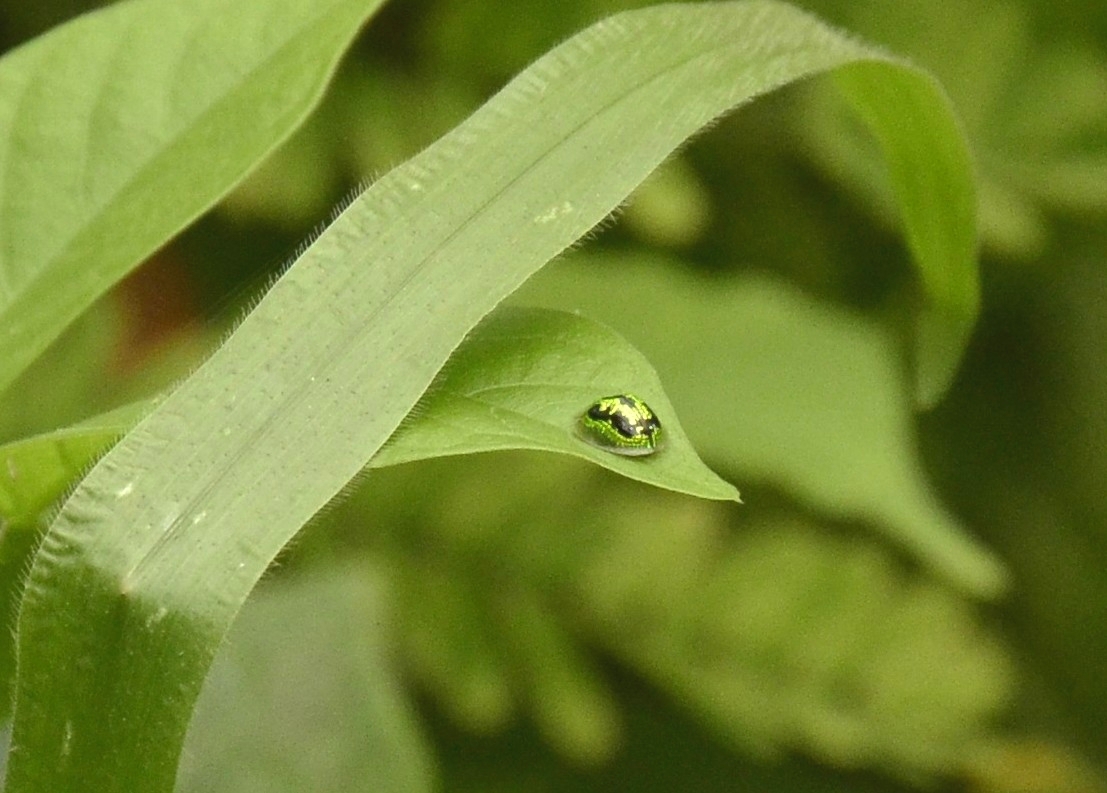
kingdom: Animalia
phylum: Arthropoda
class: Insecta
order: Coleoptera
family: Chrysomelidae
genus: Cassida
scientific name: Cassida circumdata
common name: Tortoise beetle
